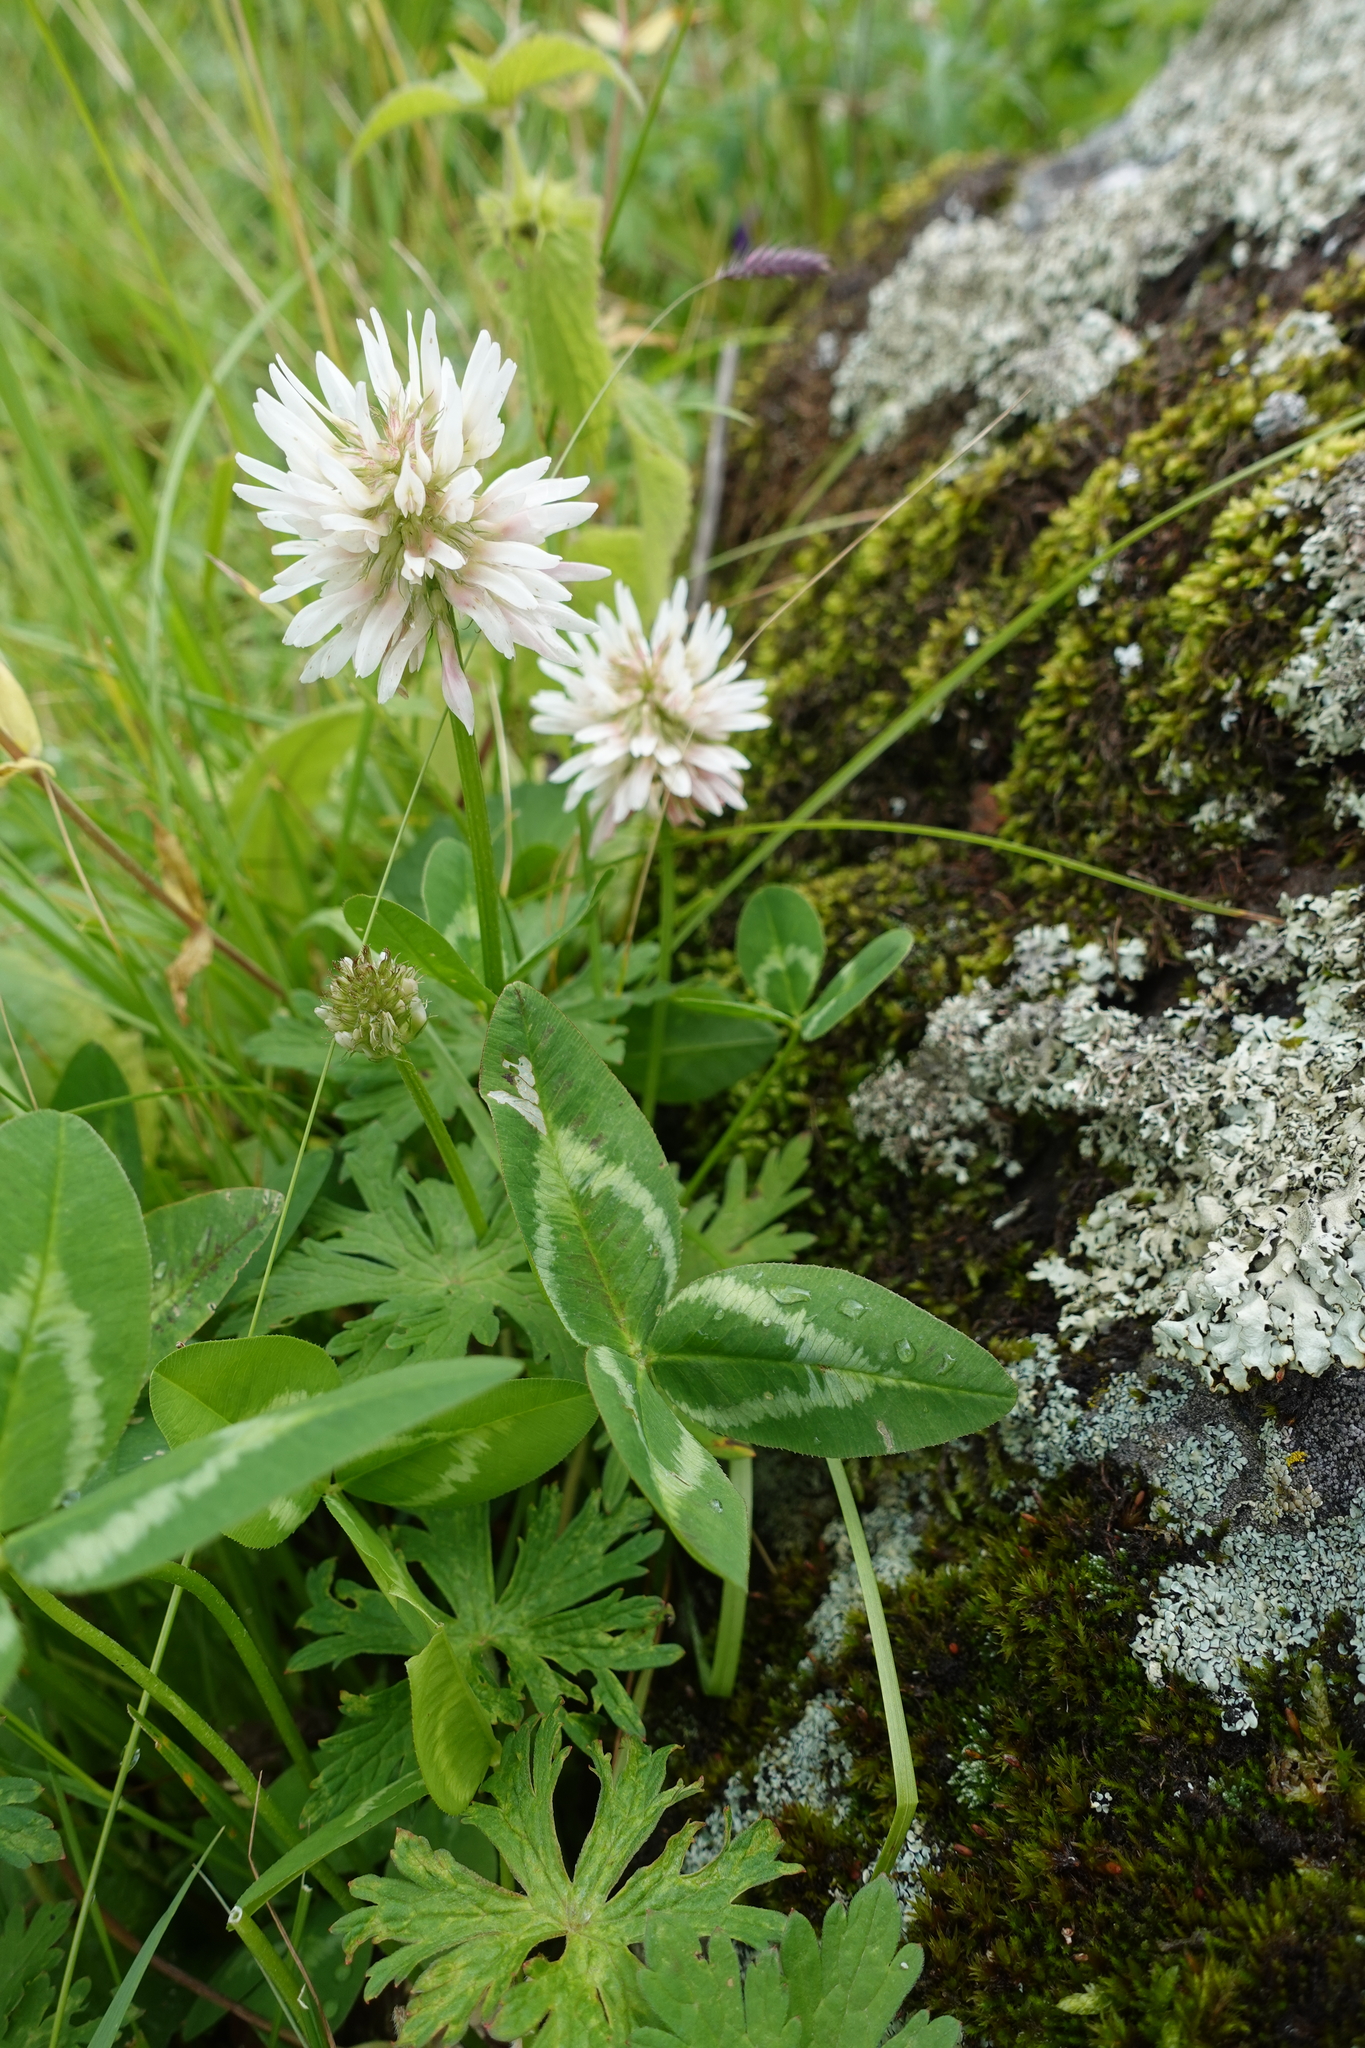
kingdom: Plantae
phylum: Tracheophyta
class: Magnoliopsida
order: Fabales
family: Fabaceae
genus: Trifolium
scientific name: Trifolium ambiguum
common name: Kura clover
